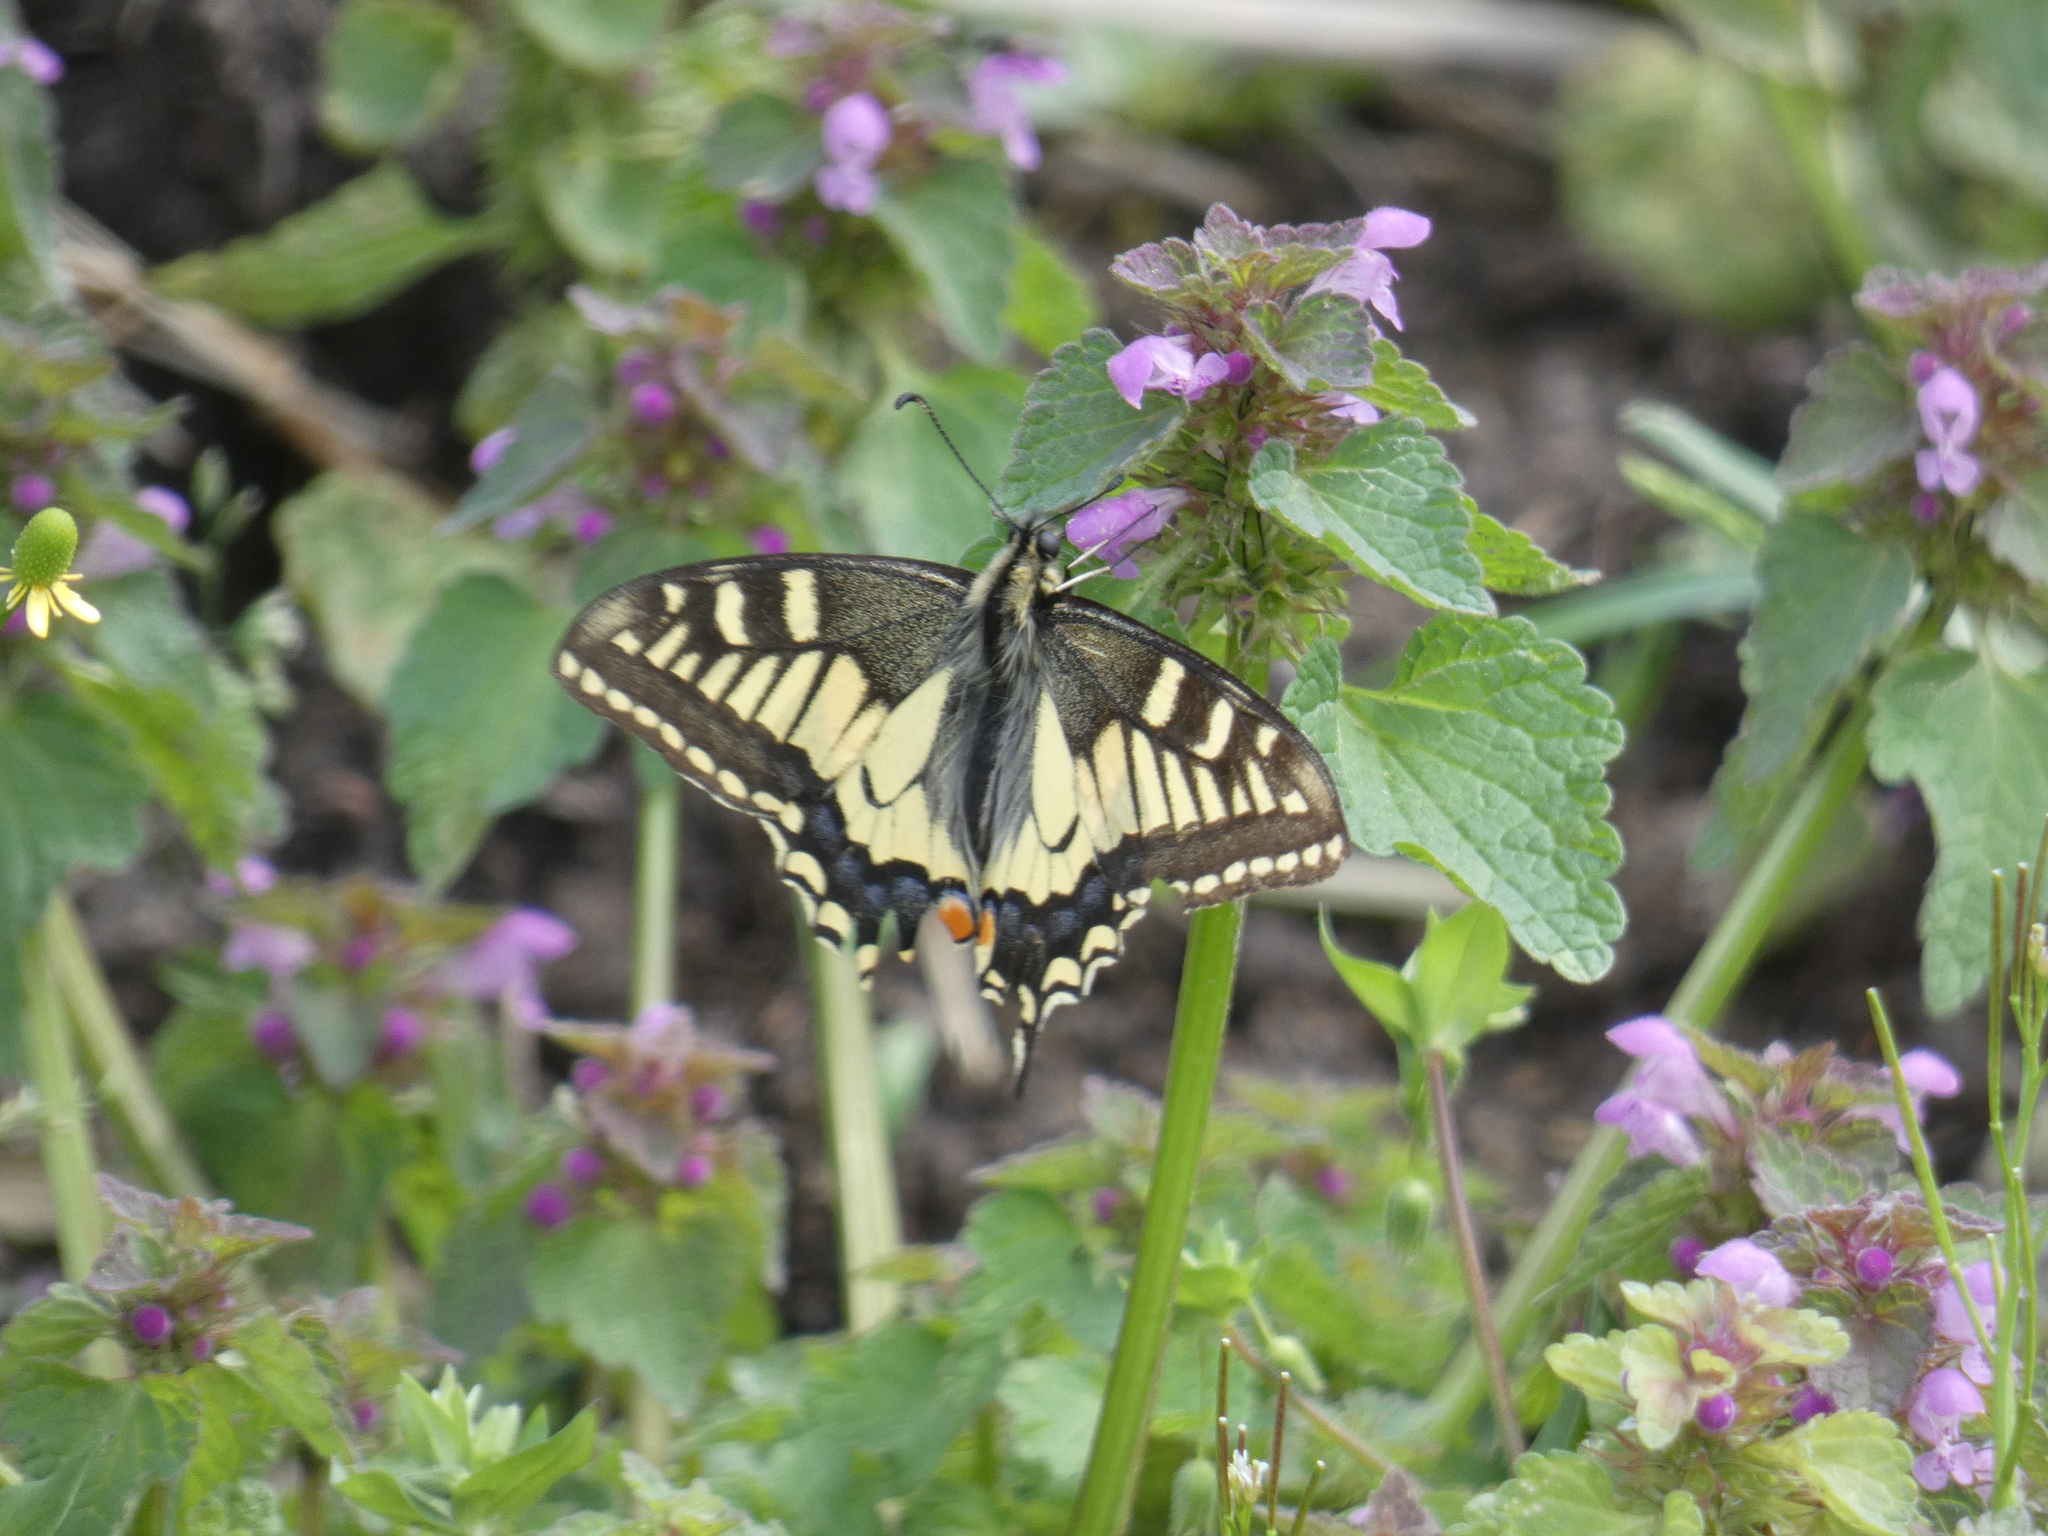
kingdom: Animalia
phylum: Arthropoda
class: Insecta
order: Lepidoptera
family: Papilionidae
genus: Papilio
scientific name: Papilio machaon
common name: Swallowtail
